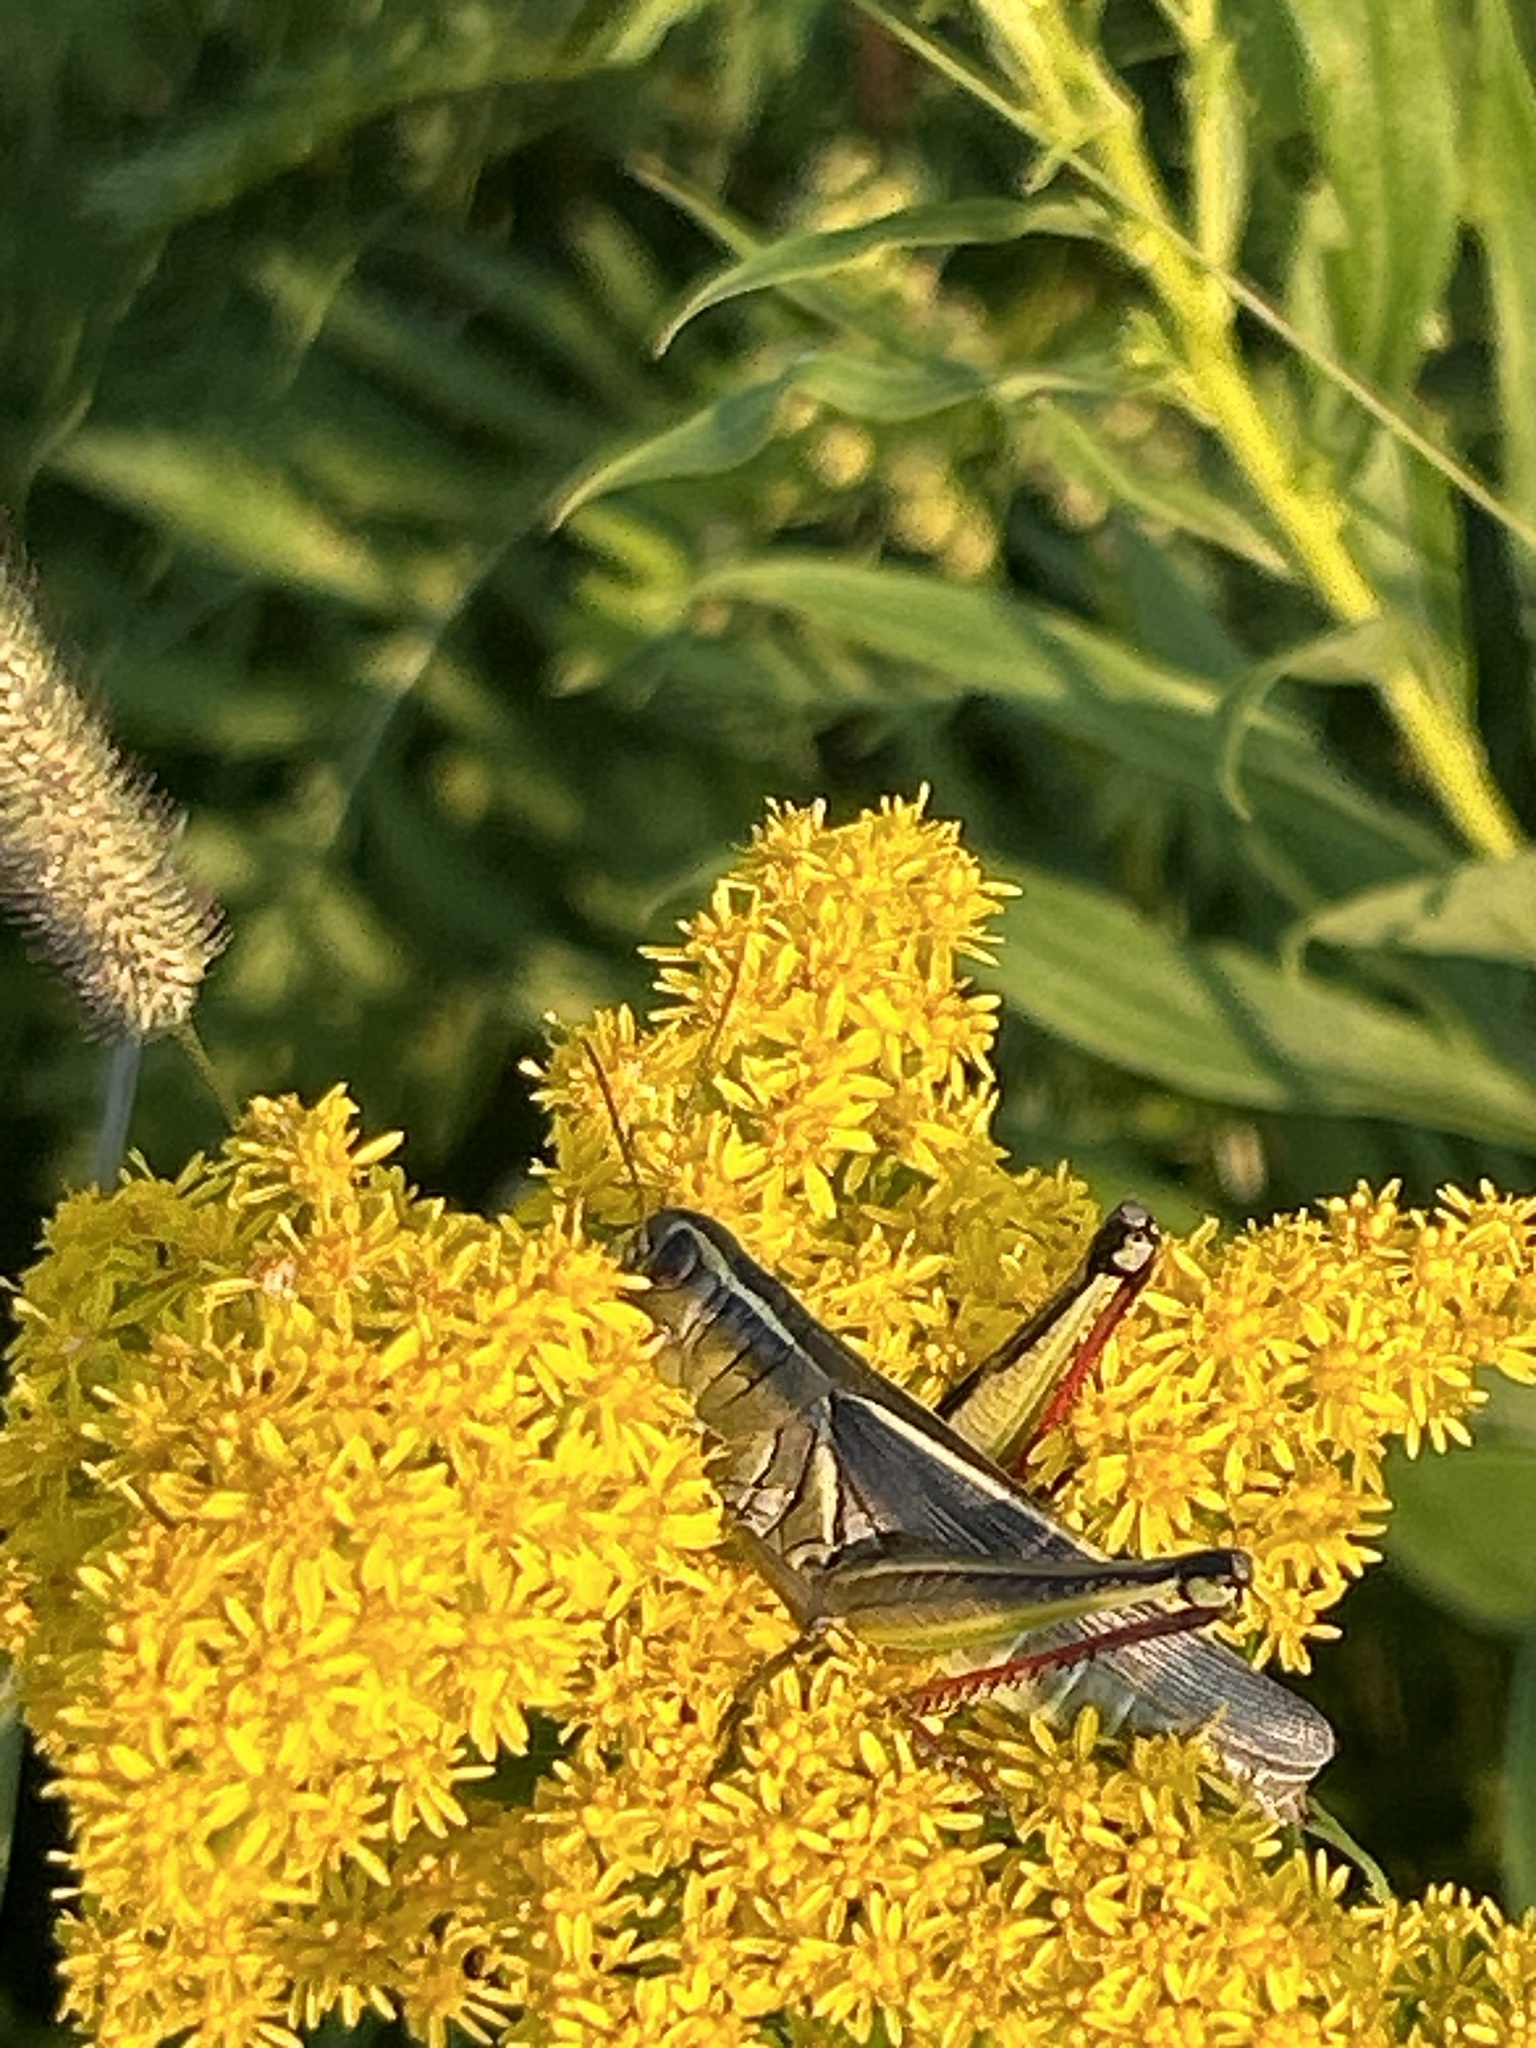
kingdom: Animalia
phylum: Arthropoda
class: Insecta
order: Orthoptera
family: Acrididae
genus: Melanoplus
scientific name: Melanoplus bivittatus
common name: Two-striped grasshopper
